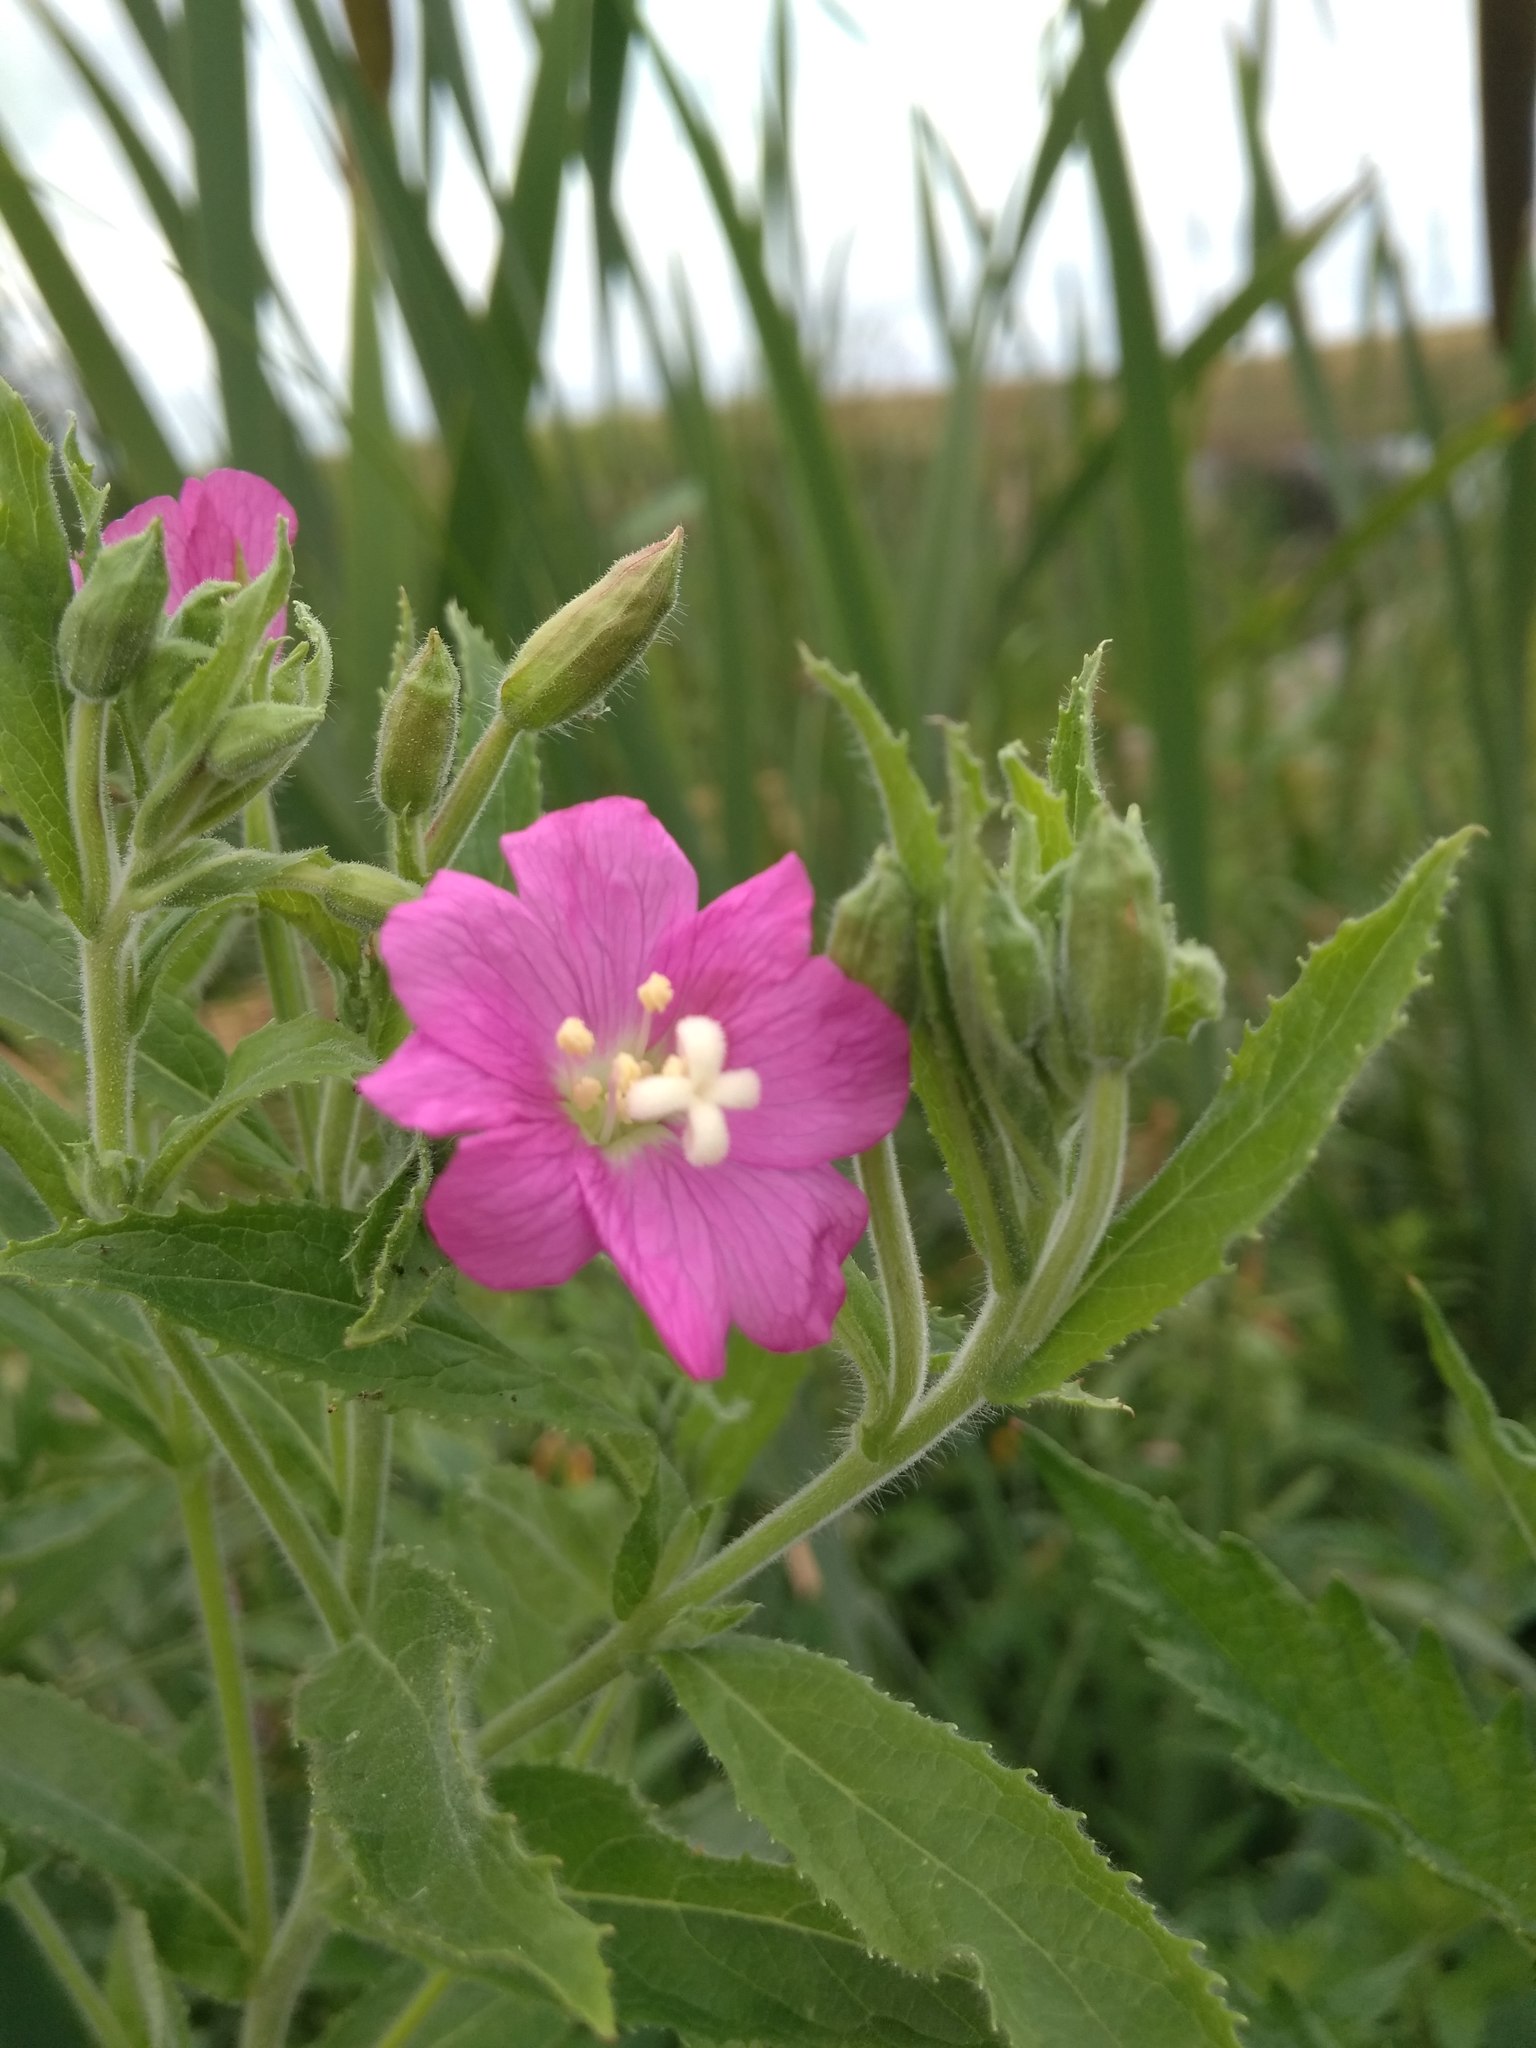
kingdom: Plantae
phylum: Tracheophyta
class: Magnoliopsida
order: Myrtales
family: Onagraceae
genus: Epilobium
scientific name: Epilobium hirsutum
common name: Great willowherb
